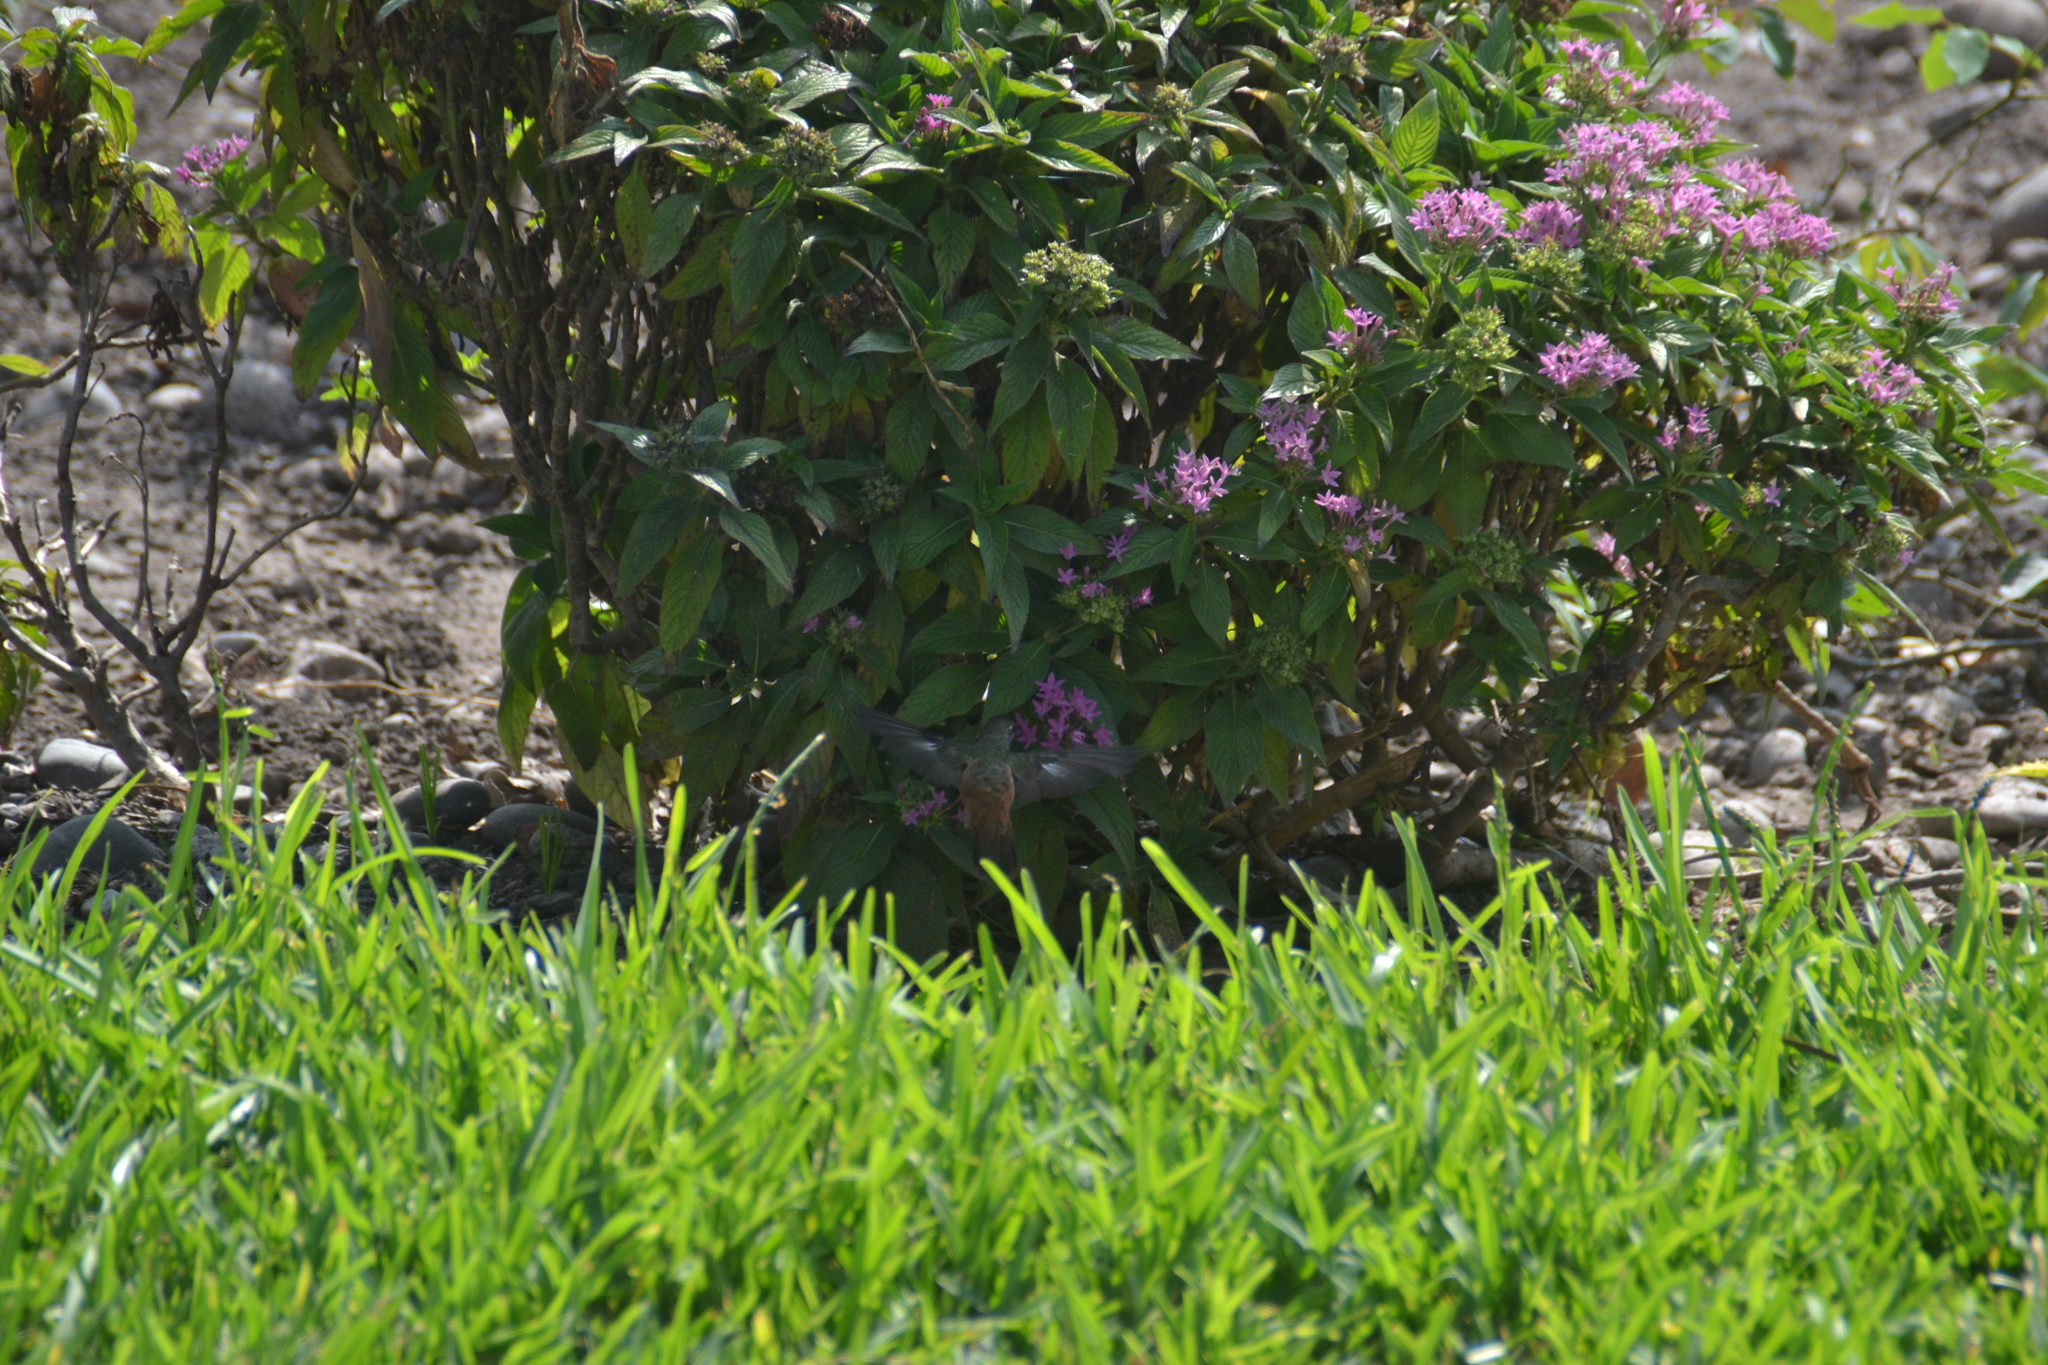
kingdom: Animalia
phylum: Chordata
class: Aves
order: Apodiformes
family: Trochilidae
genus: Amazilis
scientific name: Amazilis amazilia
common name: Amazilia hummingbird
